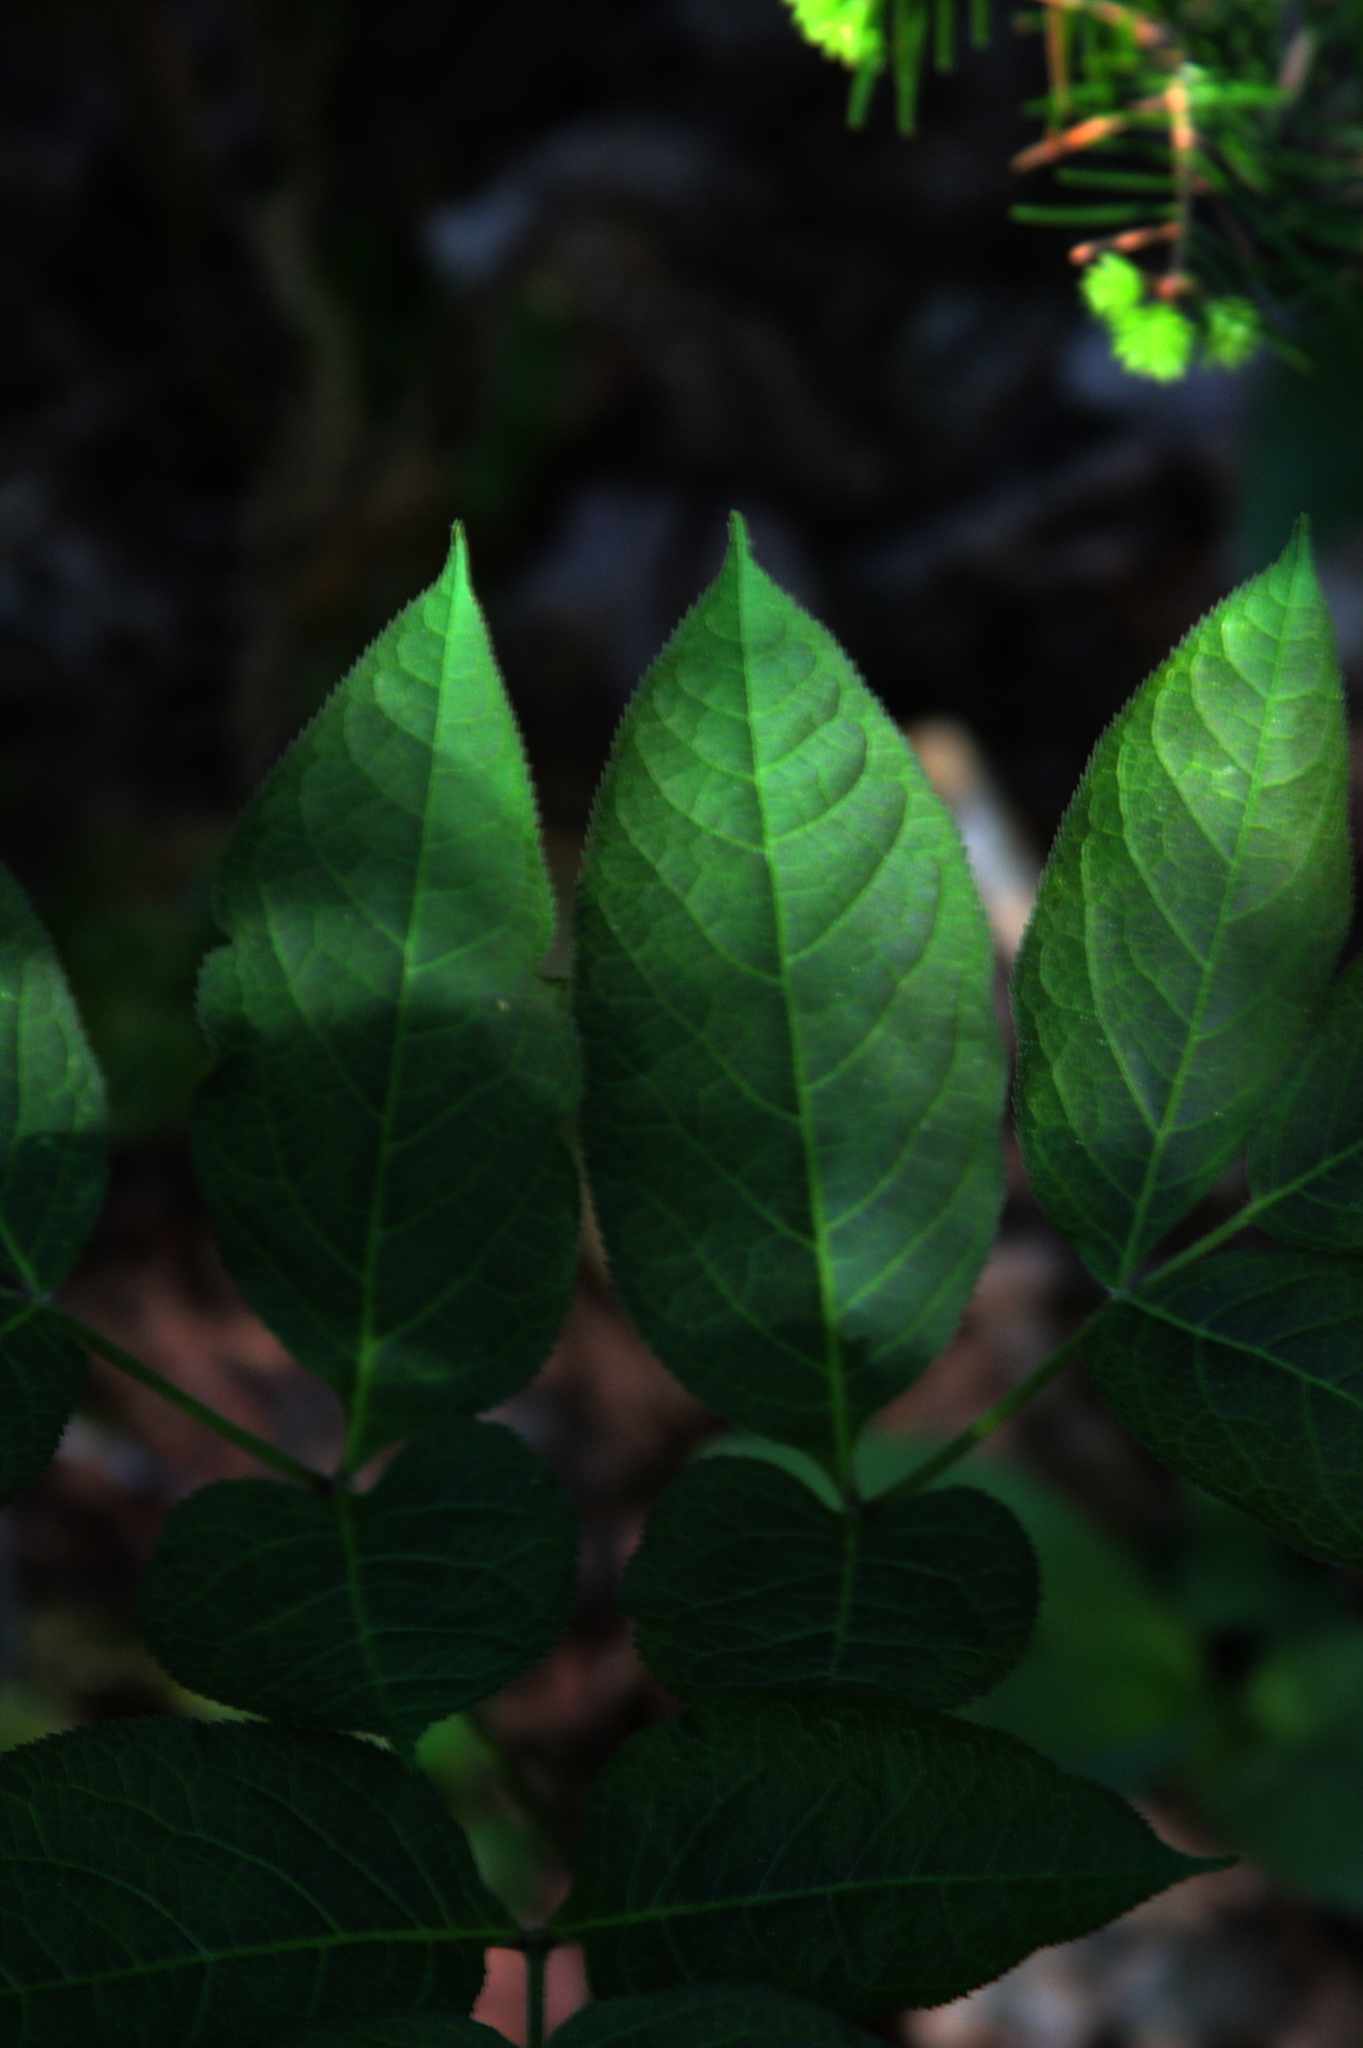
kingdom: Plantae
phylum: Tracheophyta
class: Magnoliopsida
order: Apiales
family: Araliaceae
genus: Aralia
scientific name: Aralia nudicaulis
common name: Wild sarsaparilla
